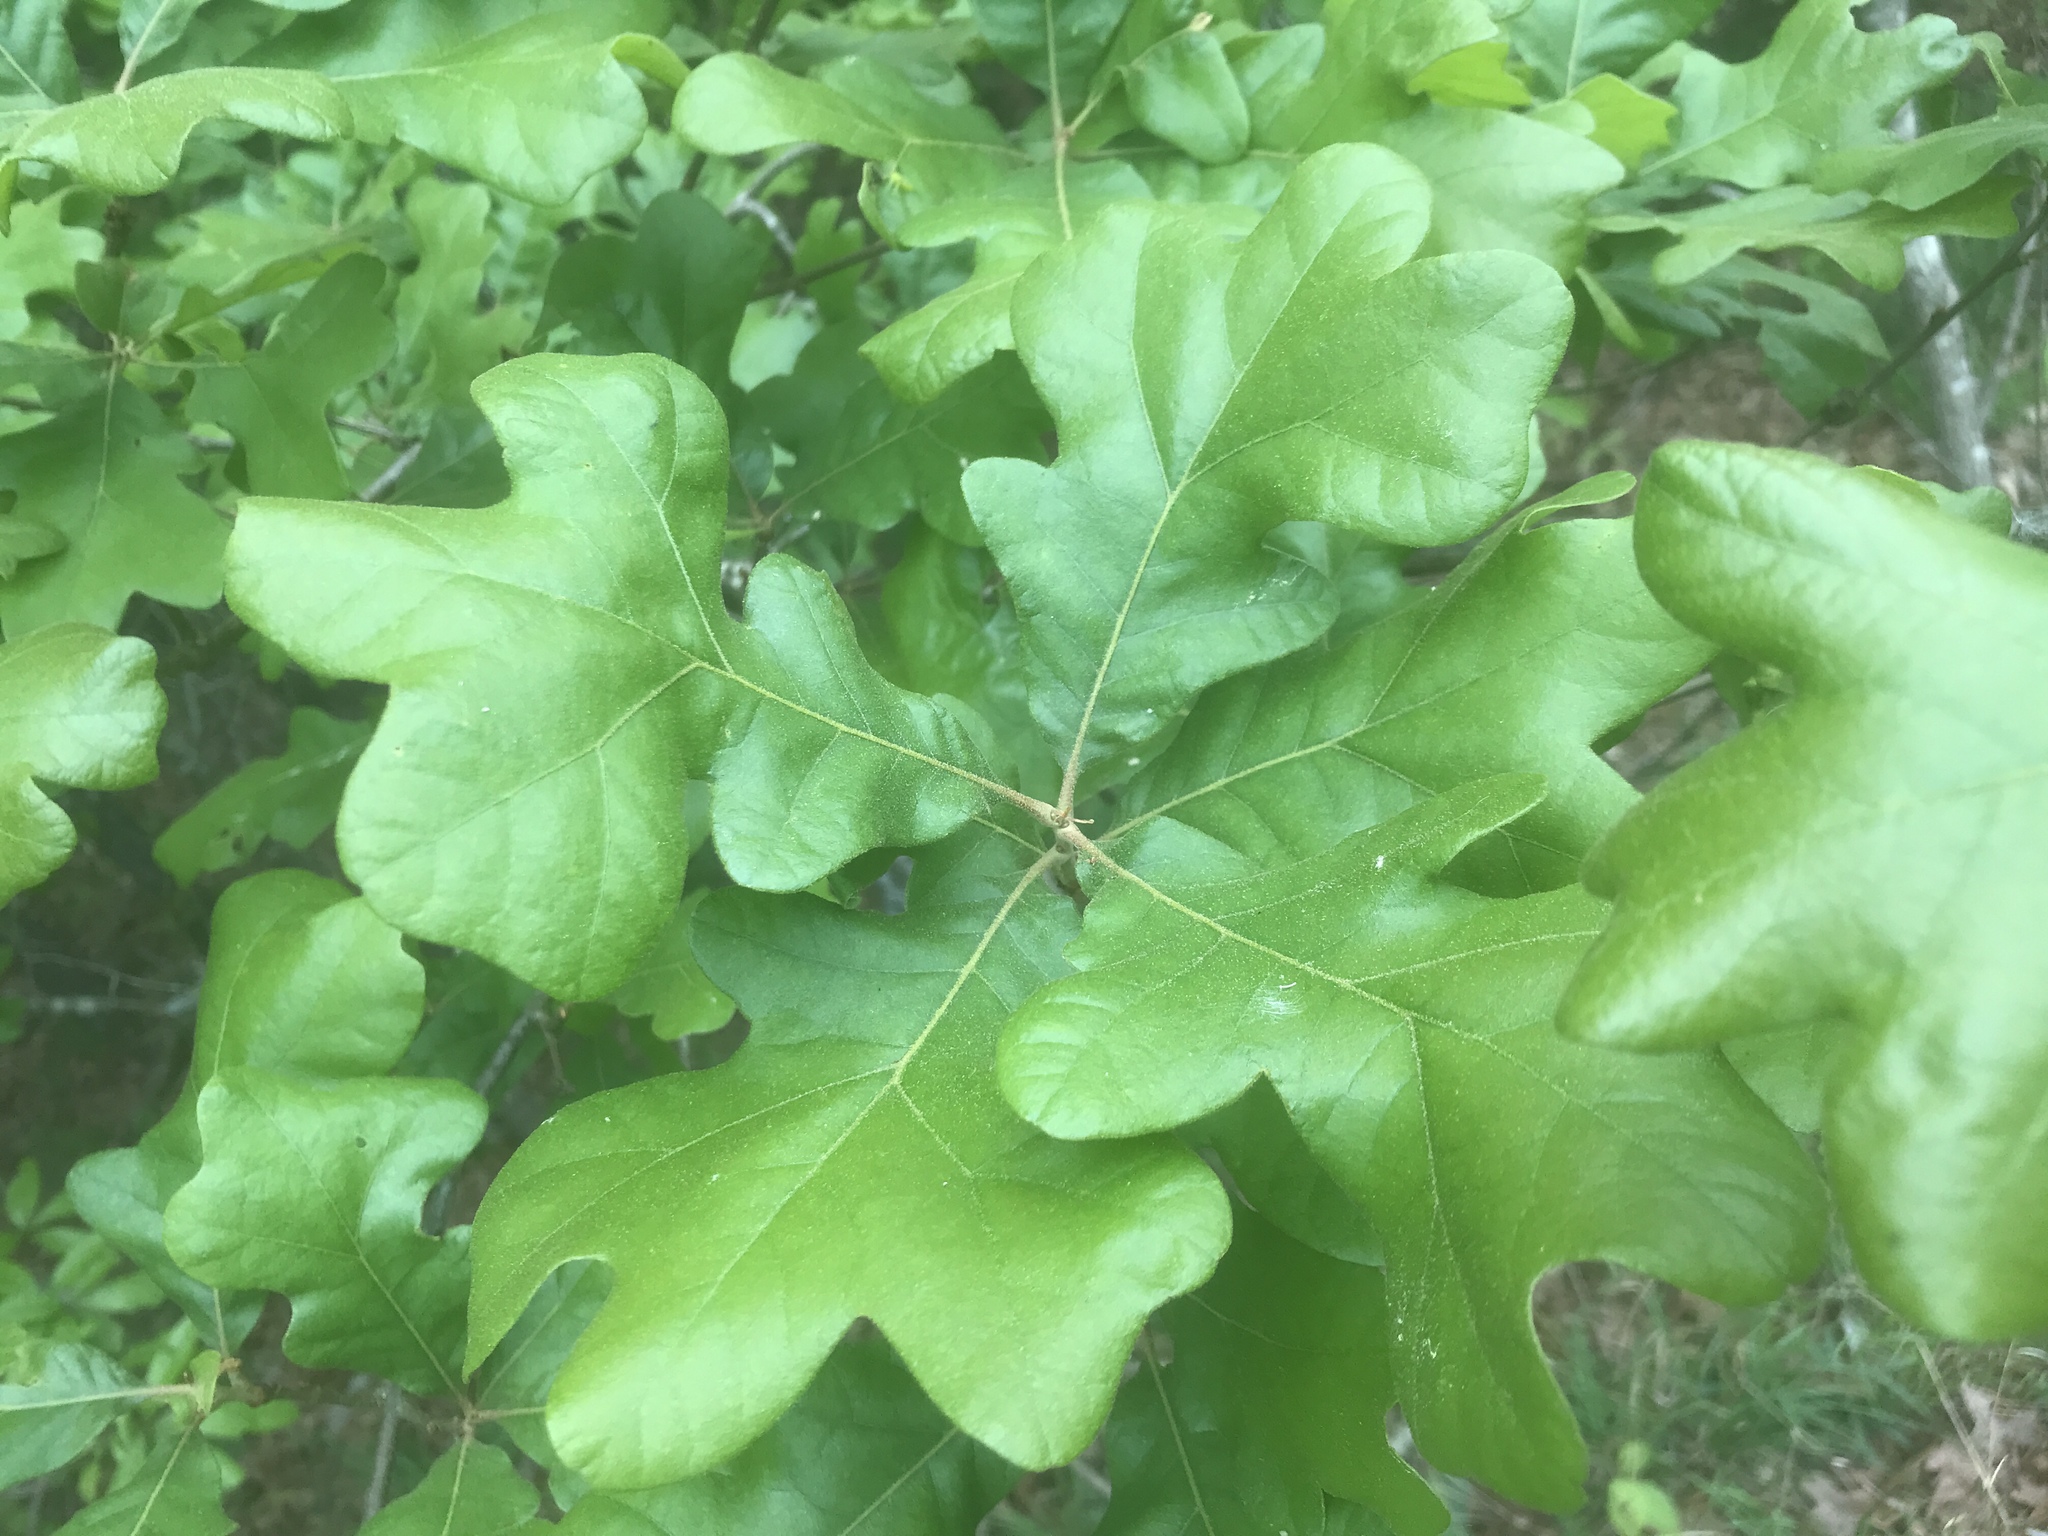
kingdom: Plantae
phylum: Tracheophyta
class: Magnoliopsida
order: Fagales
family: Fagaceae
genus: Quercus
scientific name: Quercus stellata
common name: Post oak
